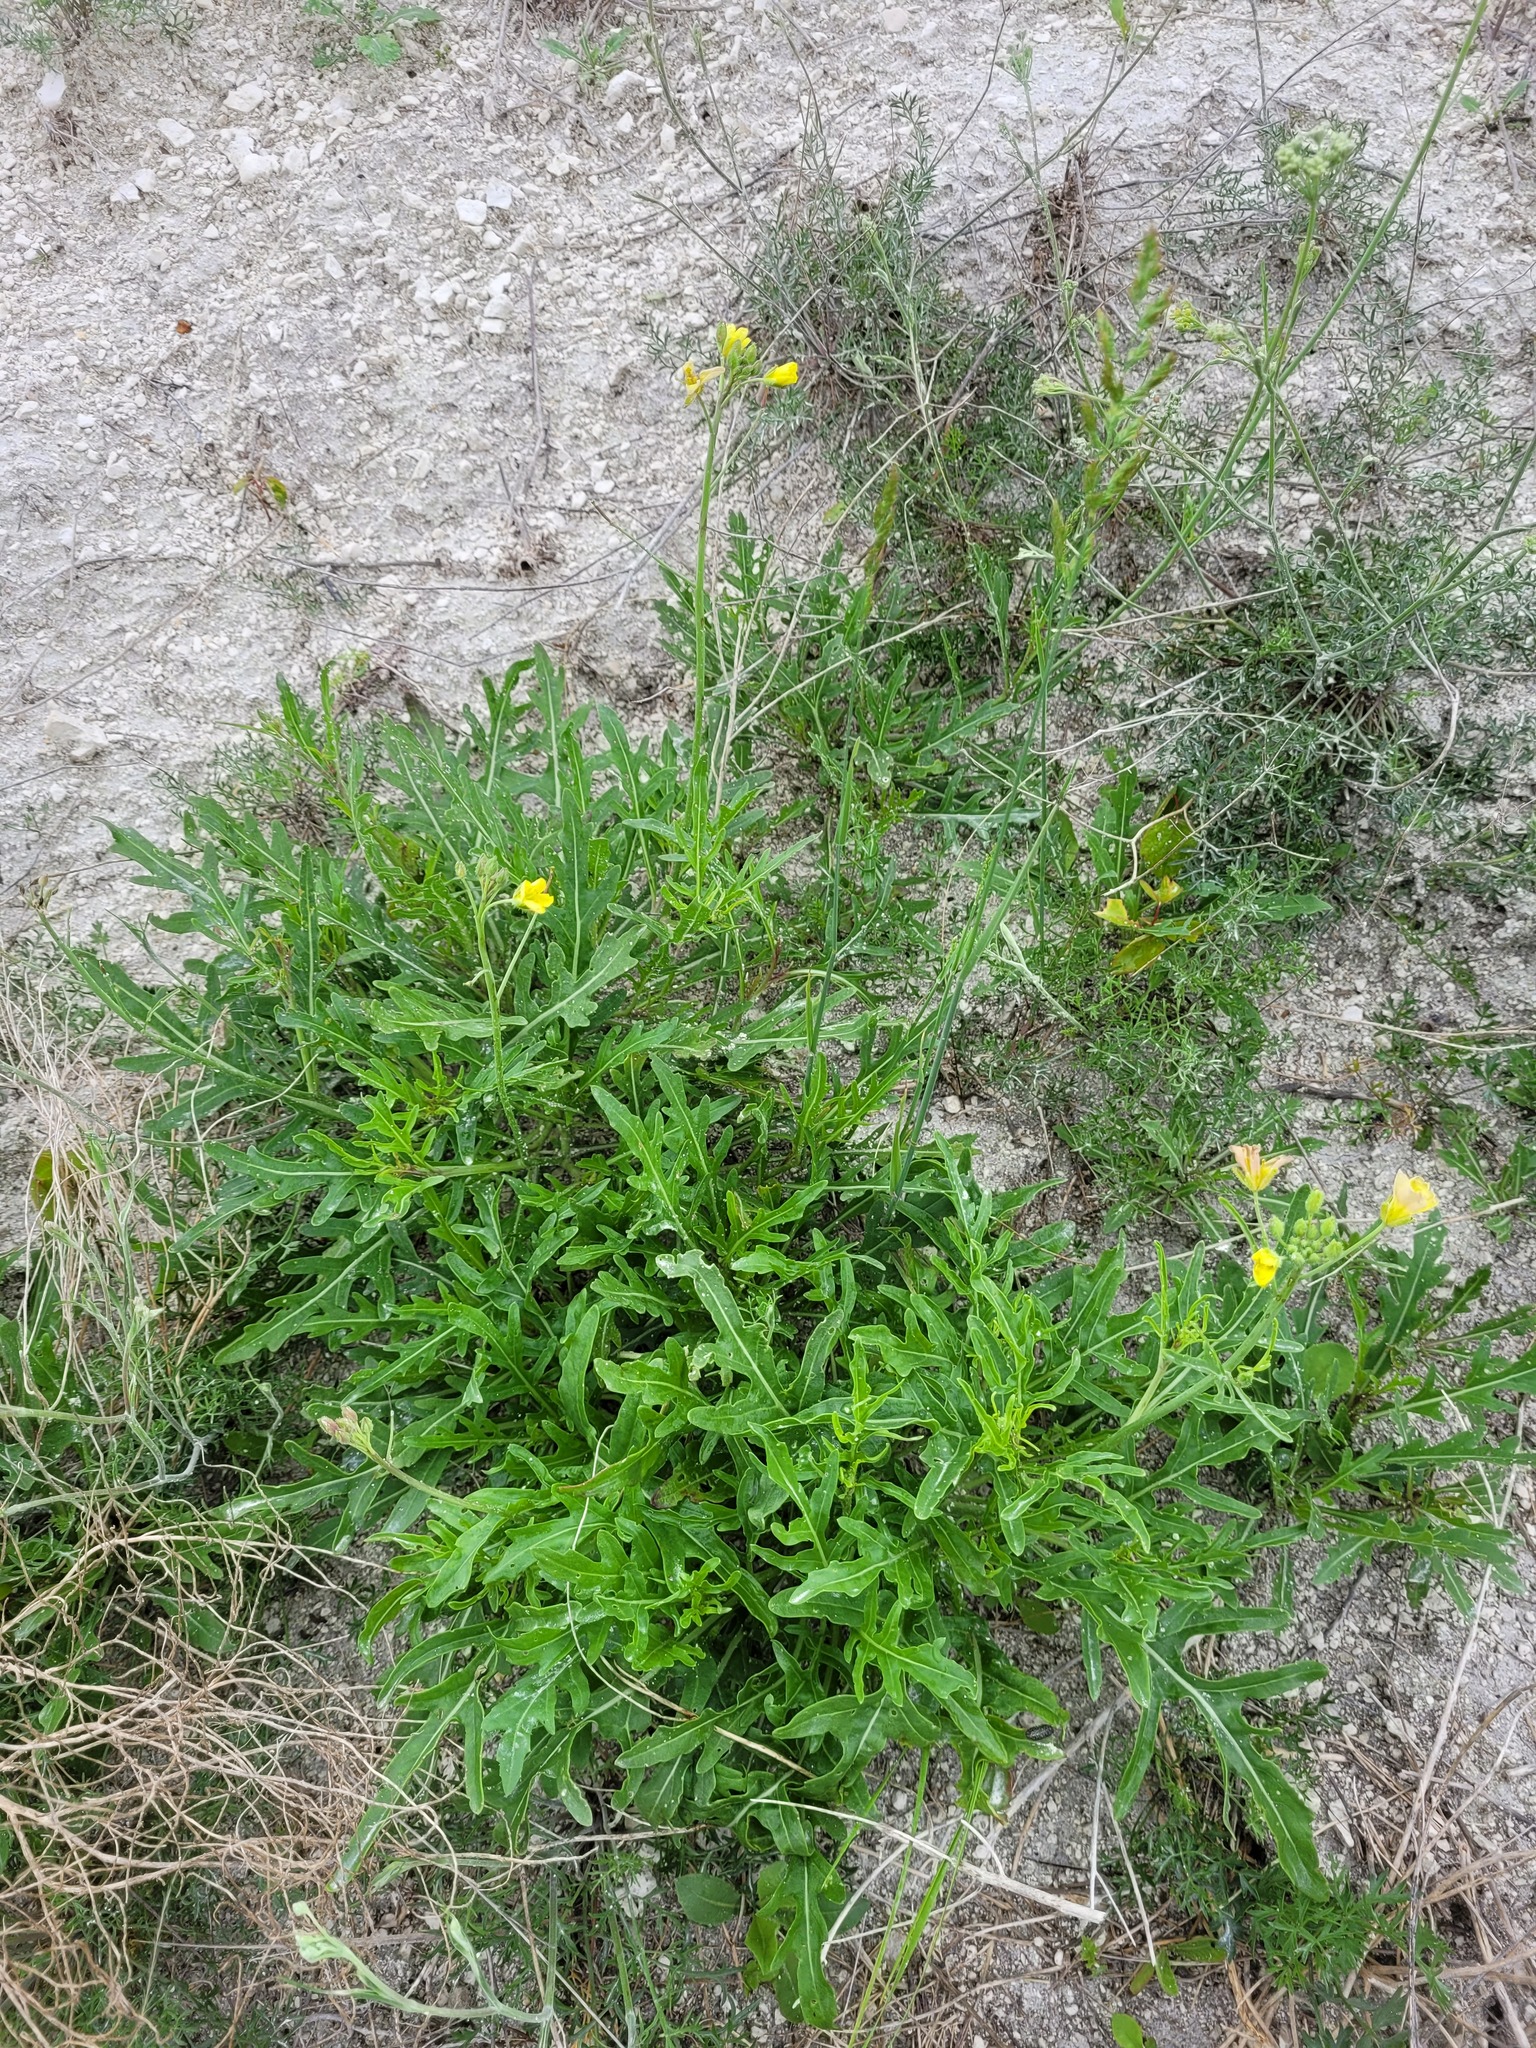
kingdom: Plantae
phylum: Tracheophyta
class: Magnoliopsida
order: Brassicales
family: Brassicaceae
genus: Diplotaxis
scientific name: Diplotaxis cretacea
